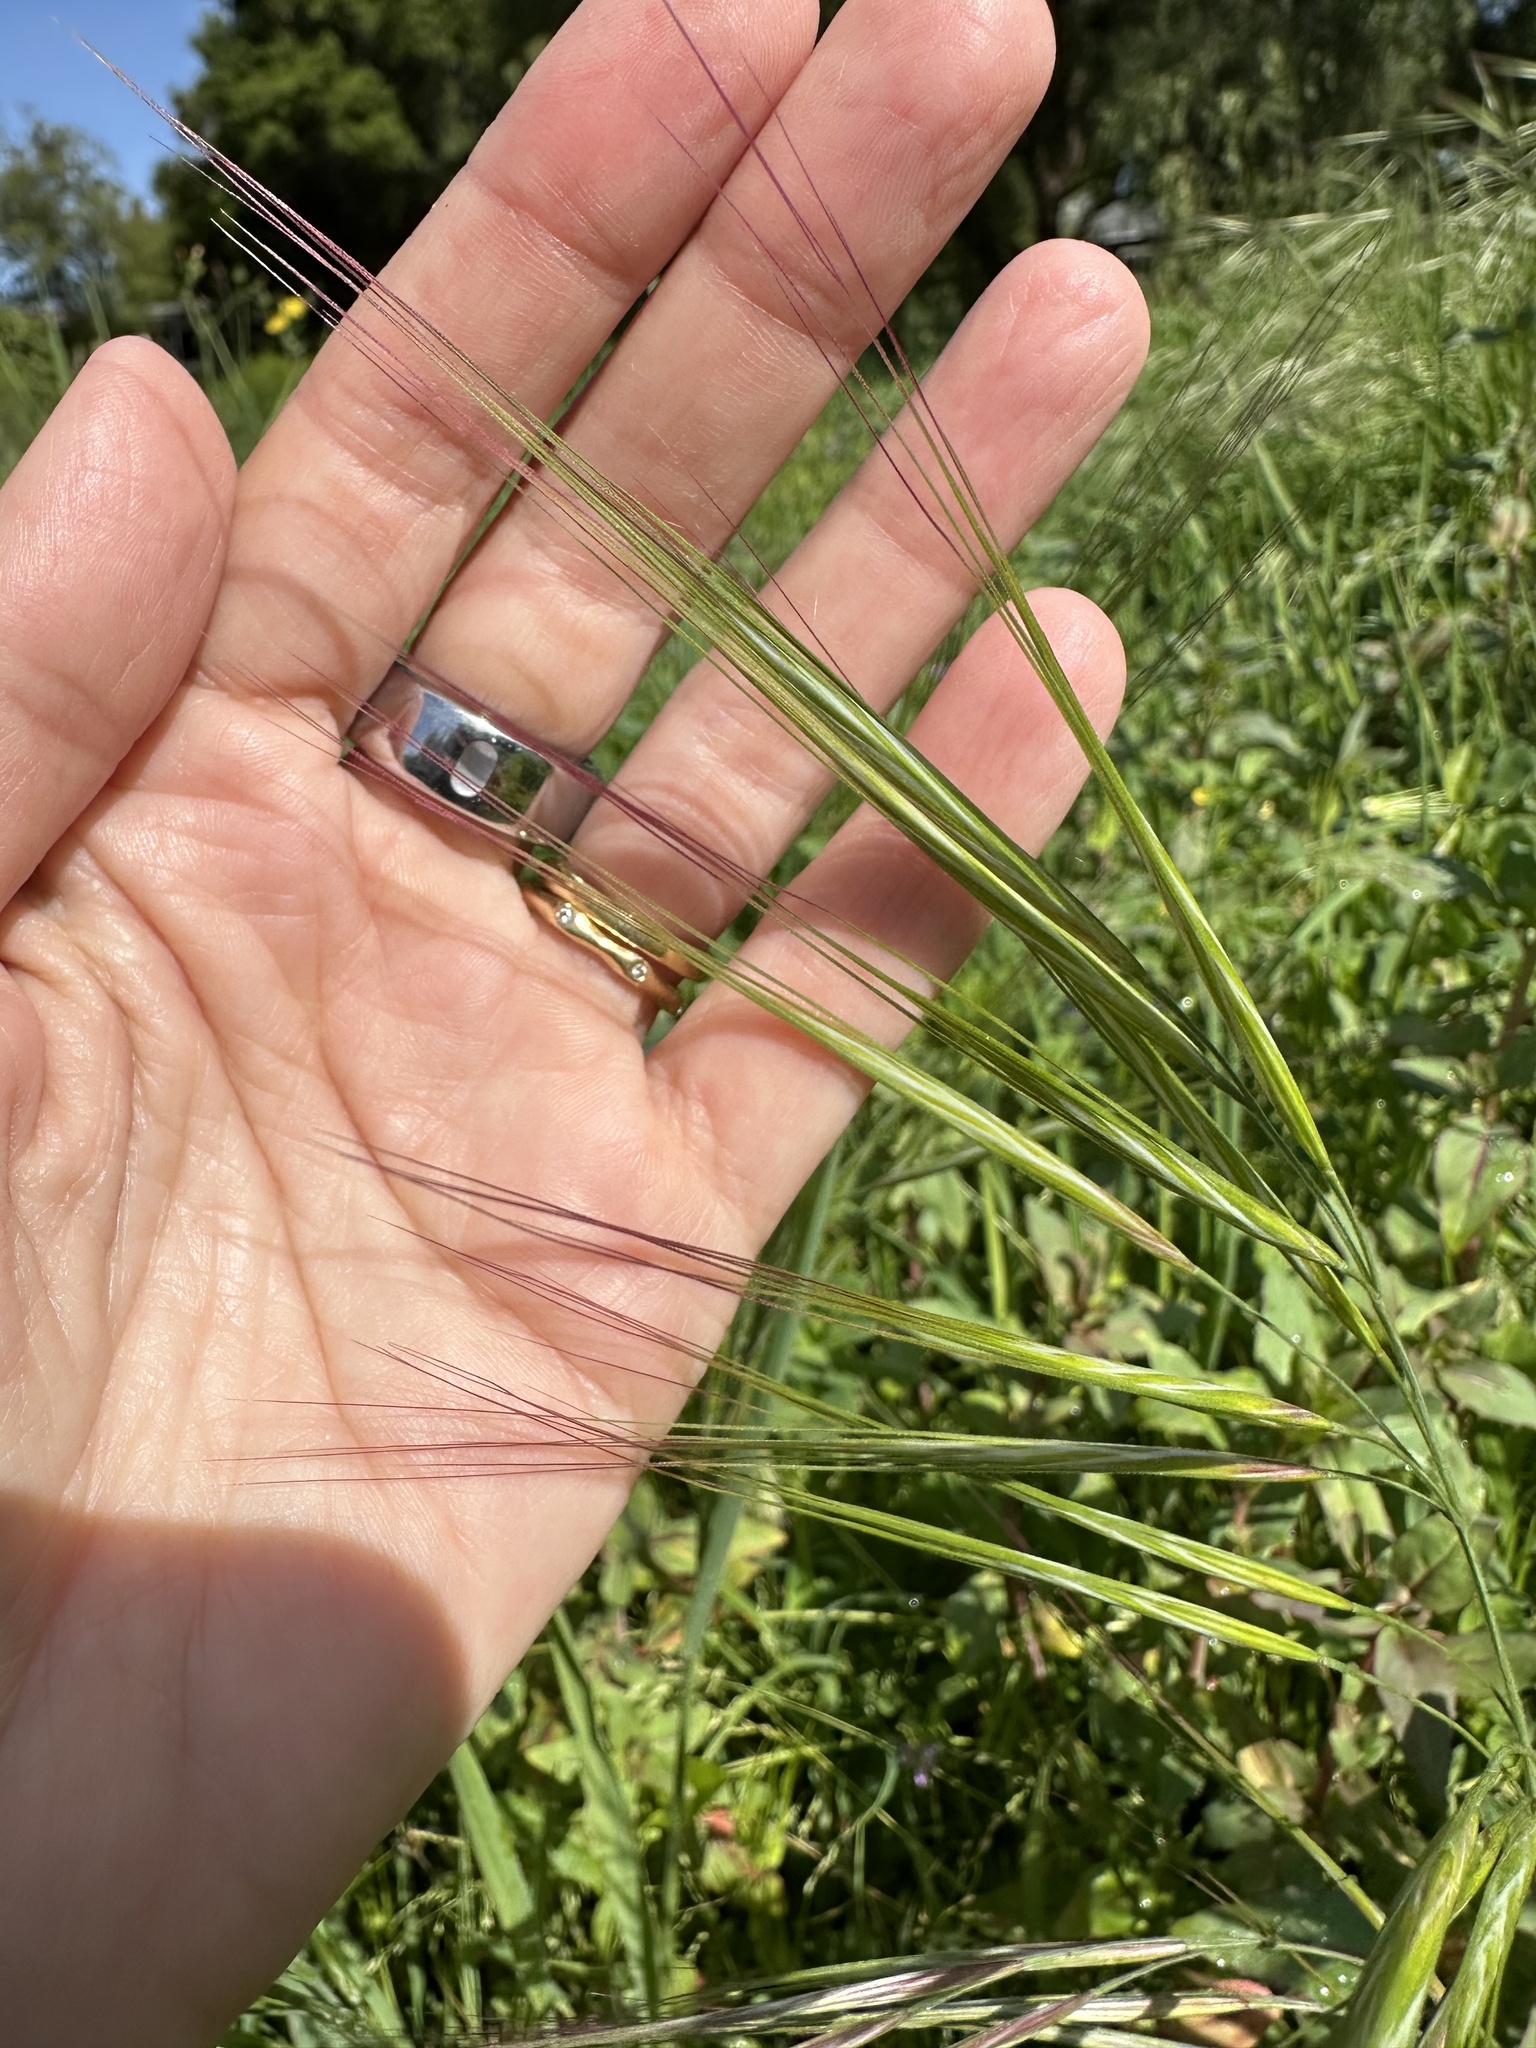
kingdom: Plantae
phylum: Tracheophyta
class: Liliopsida
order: Poales
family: Poaceae
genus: Bromus
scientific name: Bromus diandrus
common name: Ripgut brome
